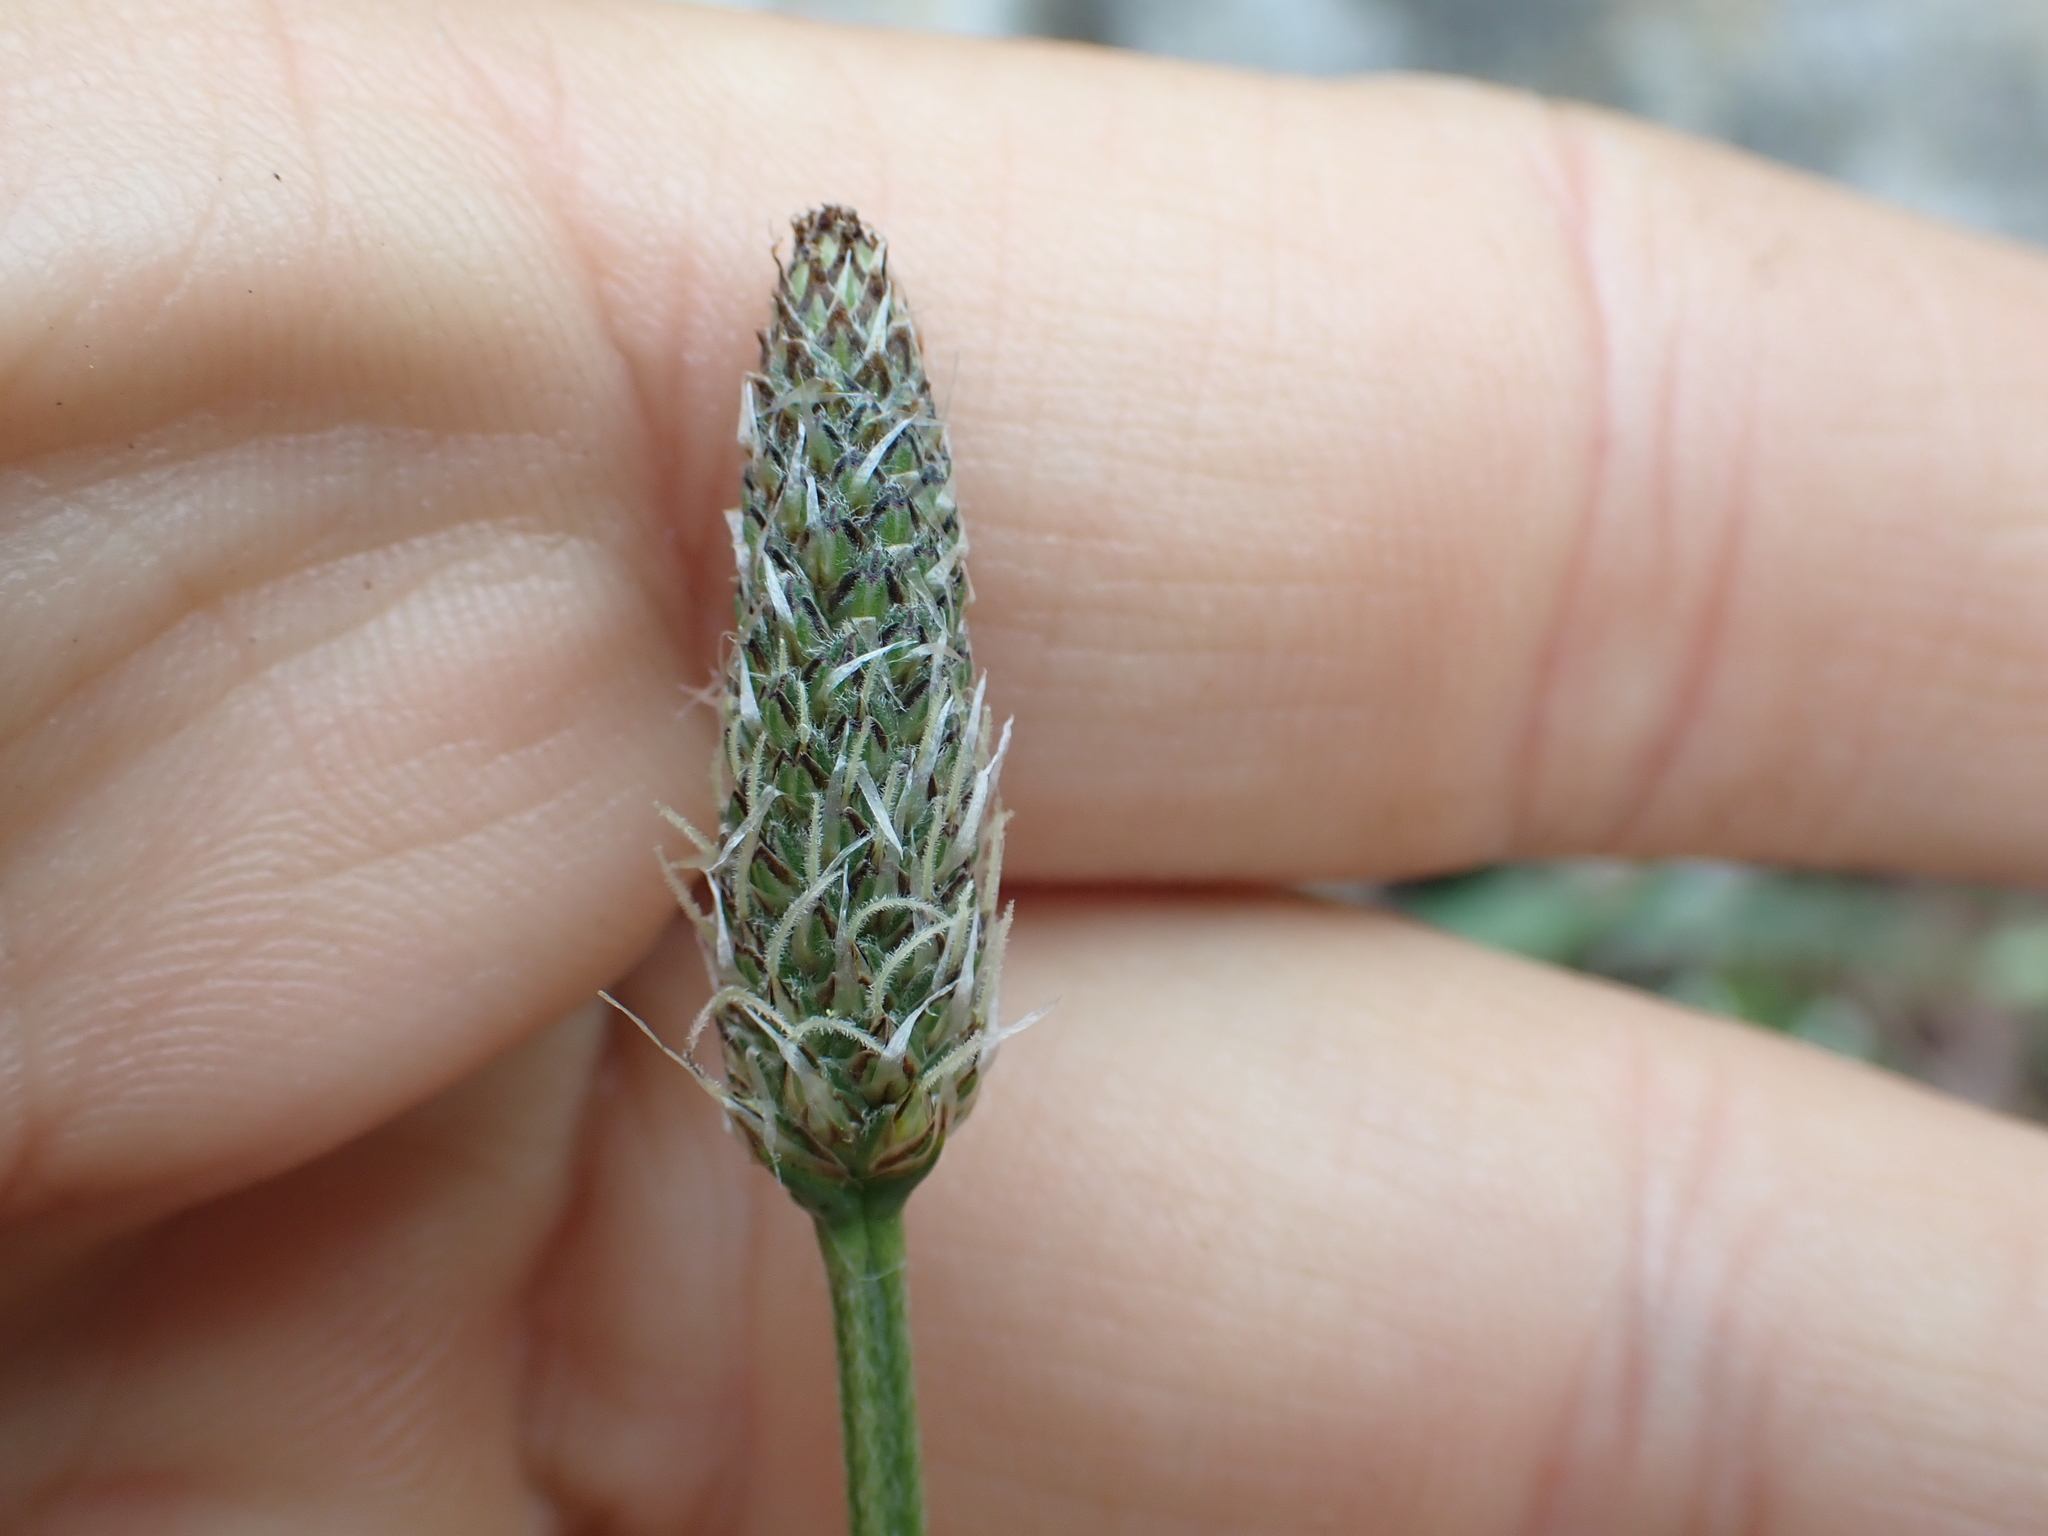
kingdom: Plantae
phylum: Tracheophyta
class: Magnoliopsida
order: Lamiales
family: Plantaginaceae
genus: Plantago
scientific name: Plantago lanceolata
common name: Ribwort plantain
